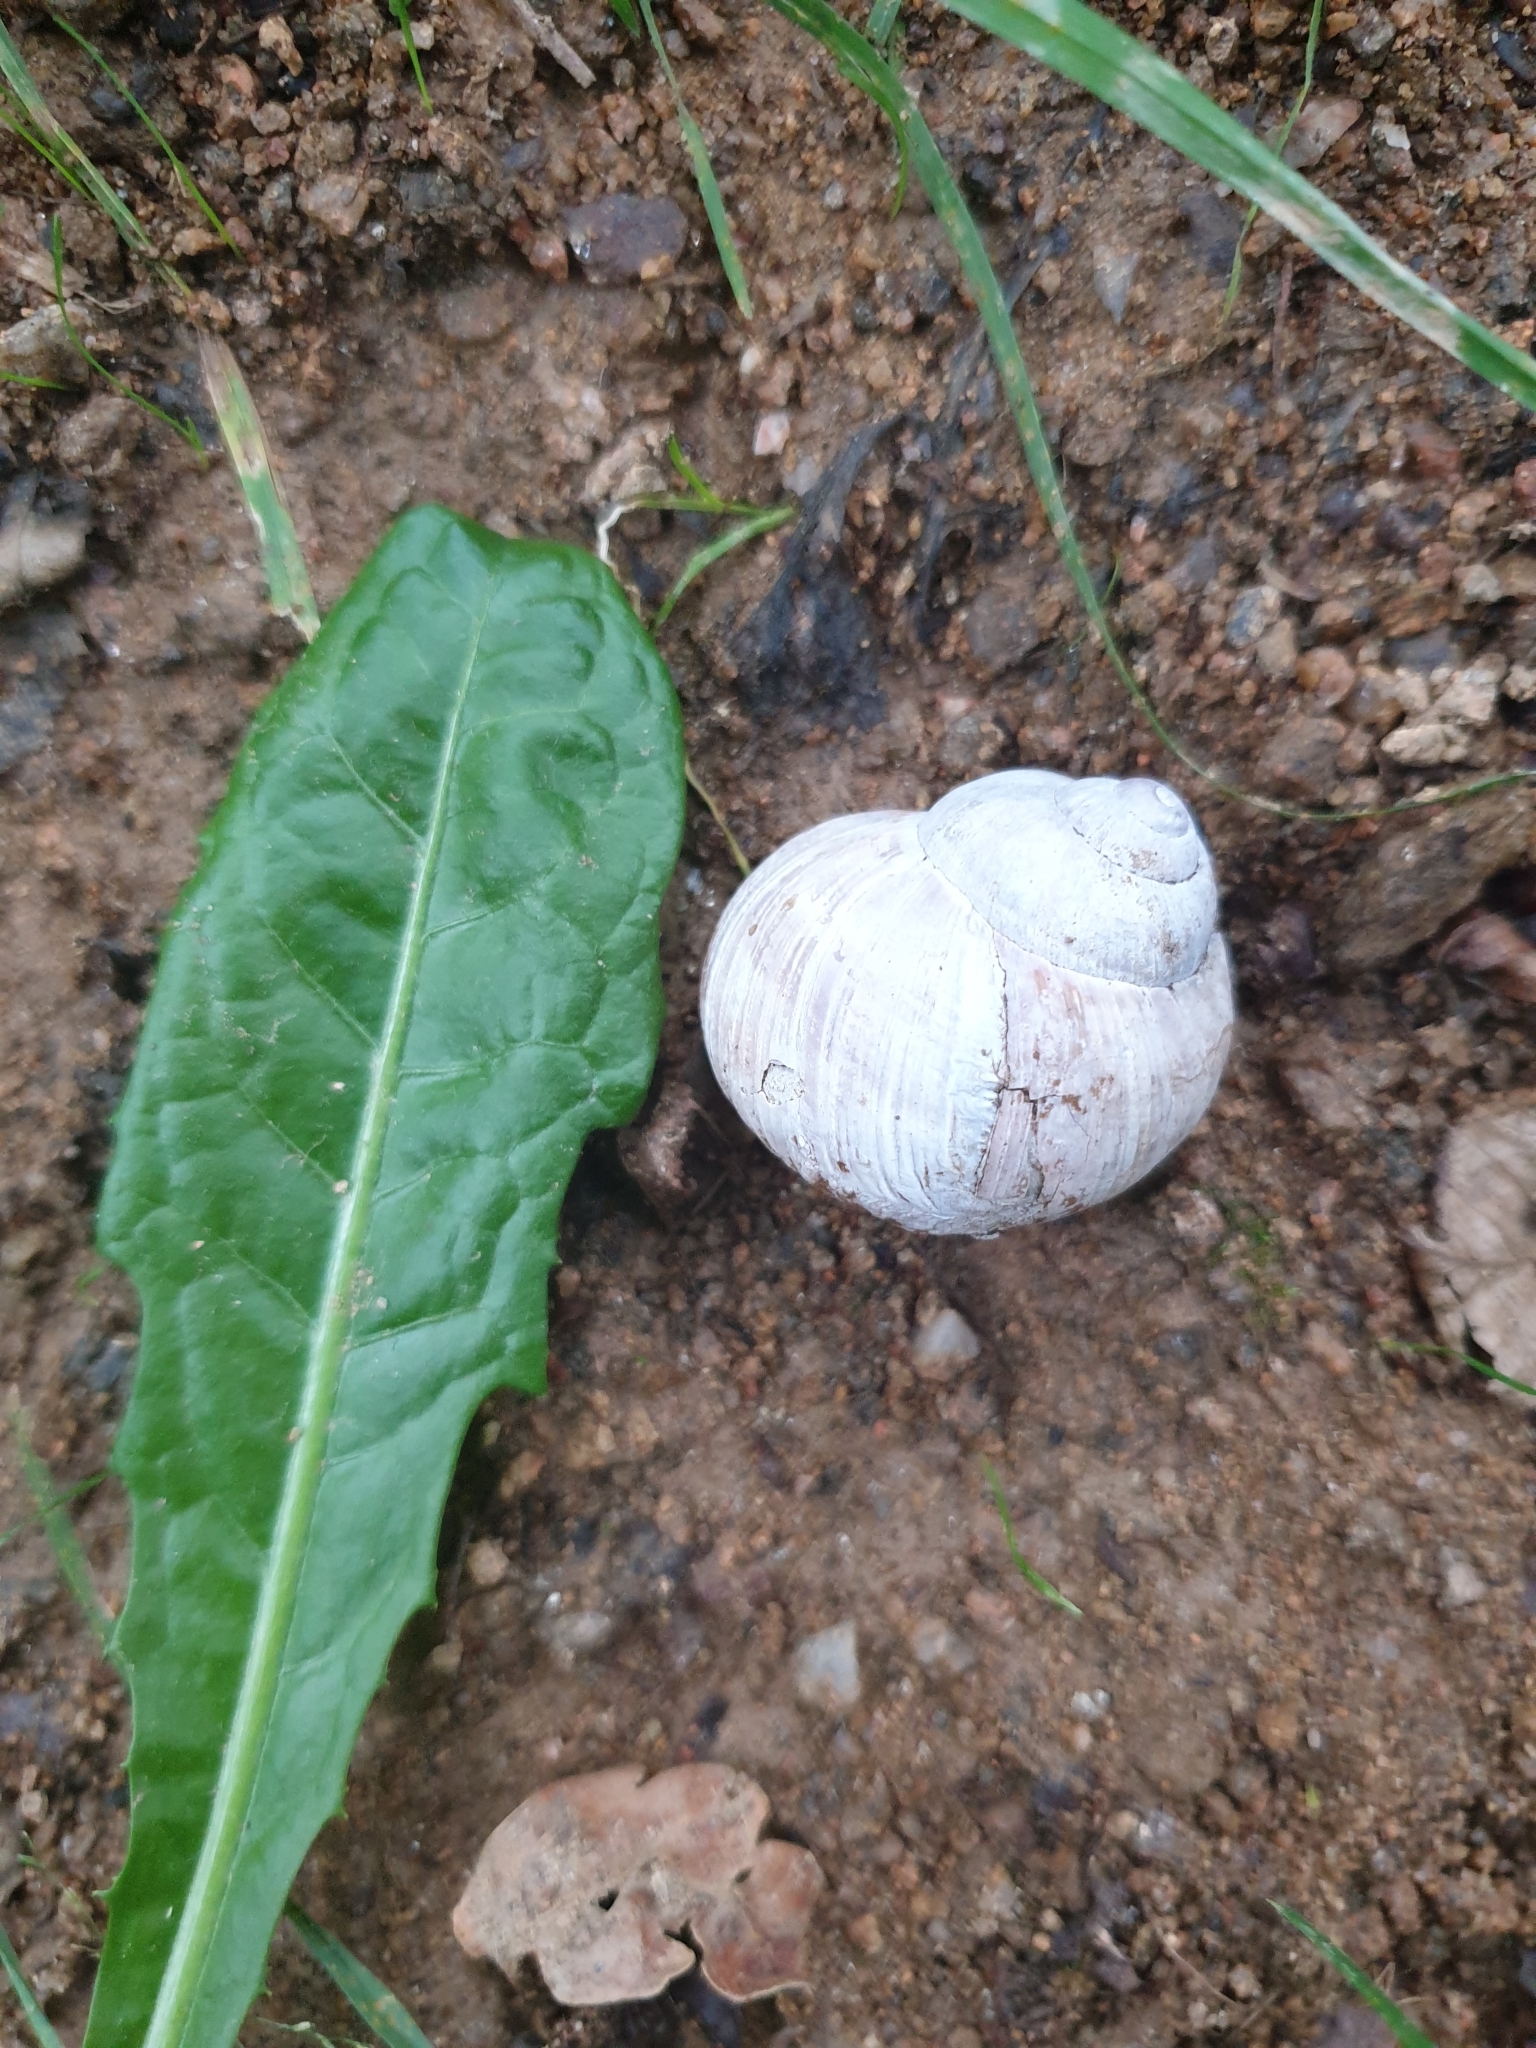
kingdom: Animalia
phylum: Mollusca
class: Gastropoda
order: Stylommatophora
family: Helicidae
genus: Helix
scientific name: Helix pomatia
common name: Roman snail
